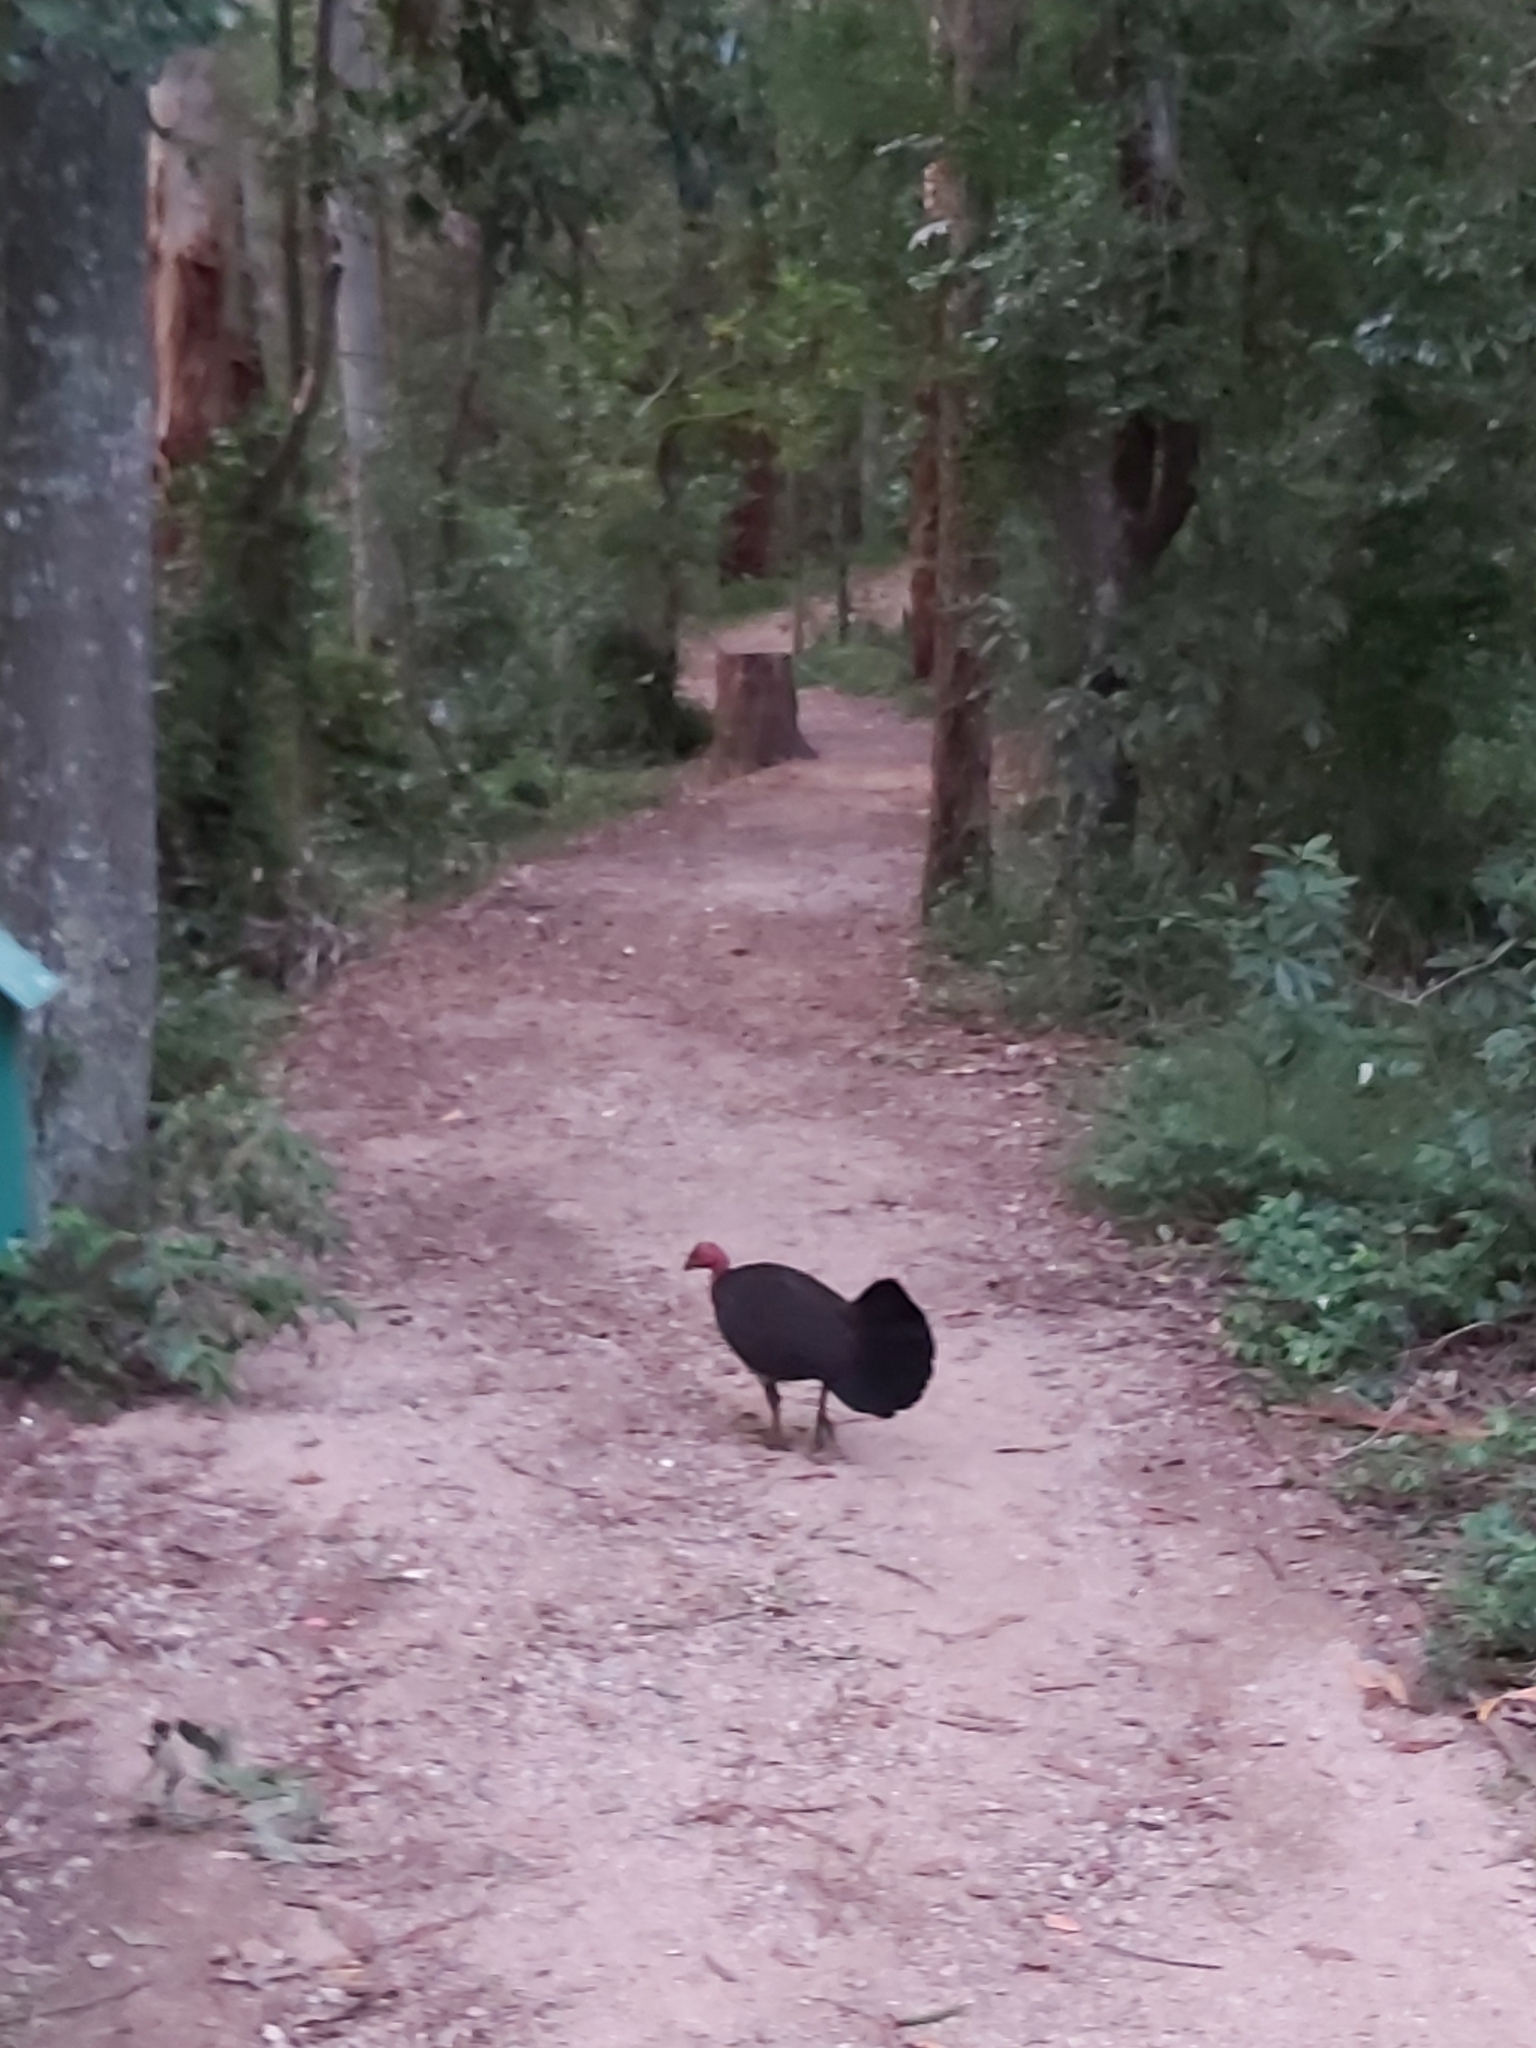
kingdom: Animalia
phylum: Chordata
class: Aves
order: Galliformes
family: Megapodiidae
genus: Alectura
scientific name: Alectura lathami
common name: Australian brushturkey
